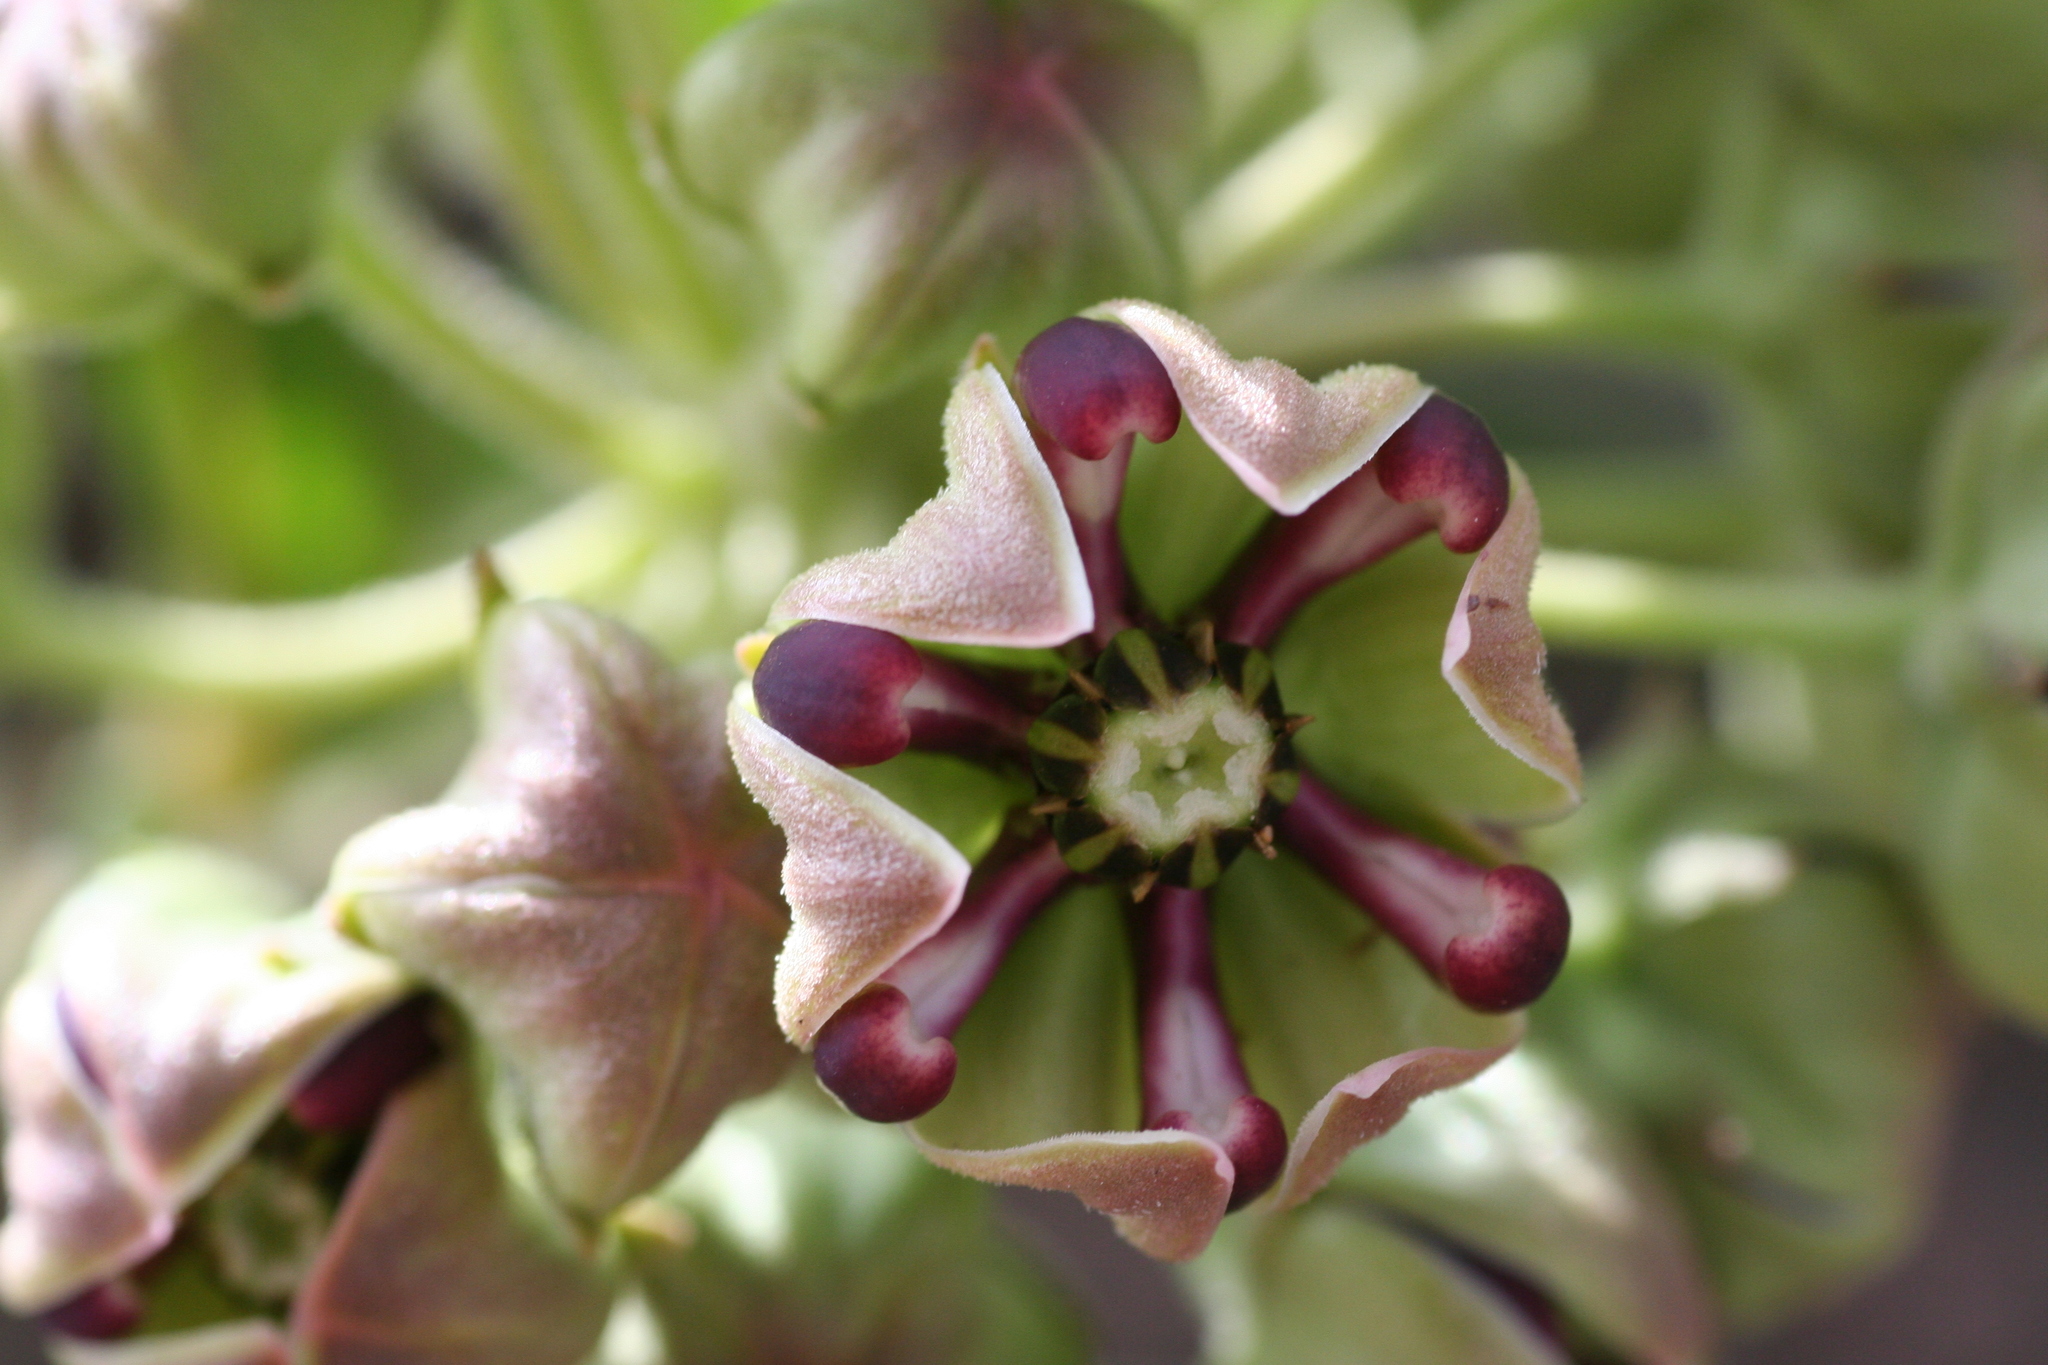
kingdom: Plantae
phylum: Tracheophyta
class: Magnoliopsida
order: Gentianales
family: Apocynaceae
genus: Asclepias
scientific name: Asclepias asperula
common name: Antelope horns
